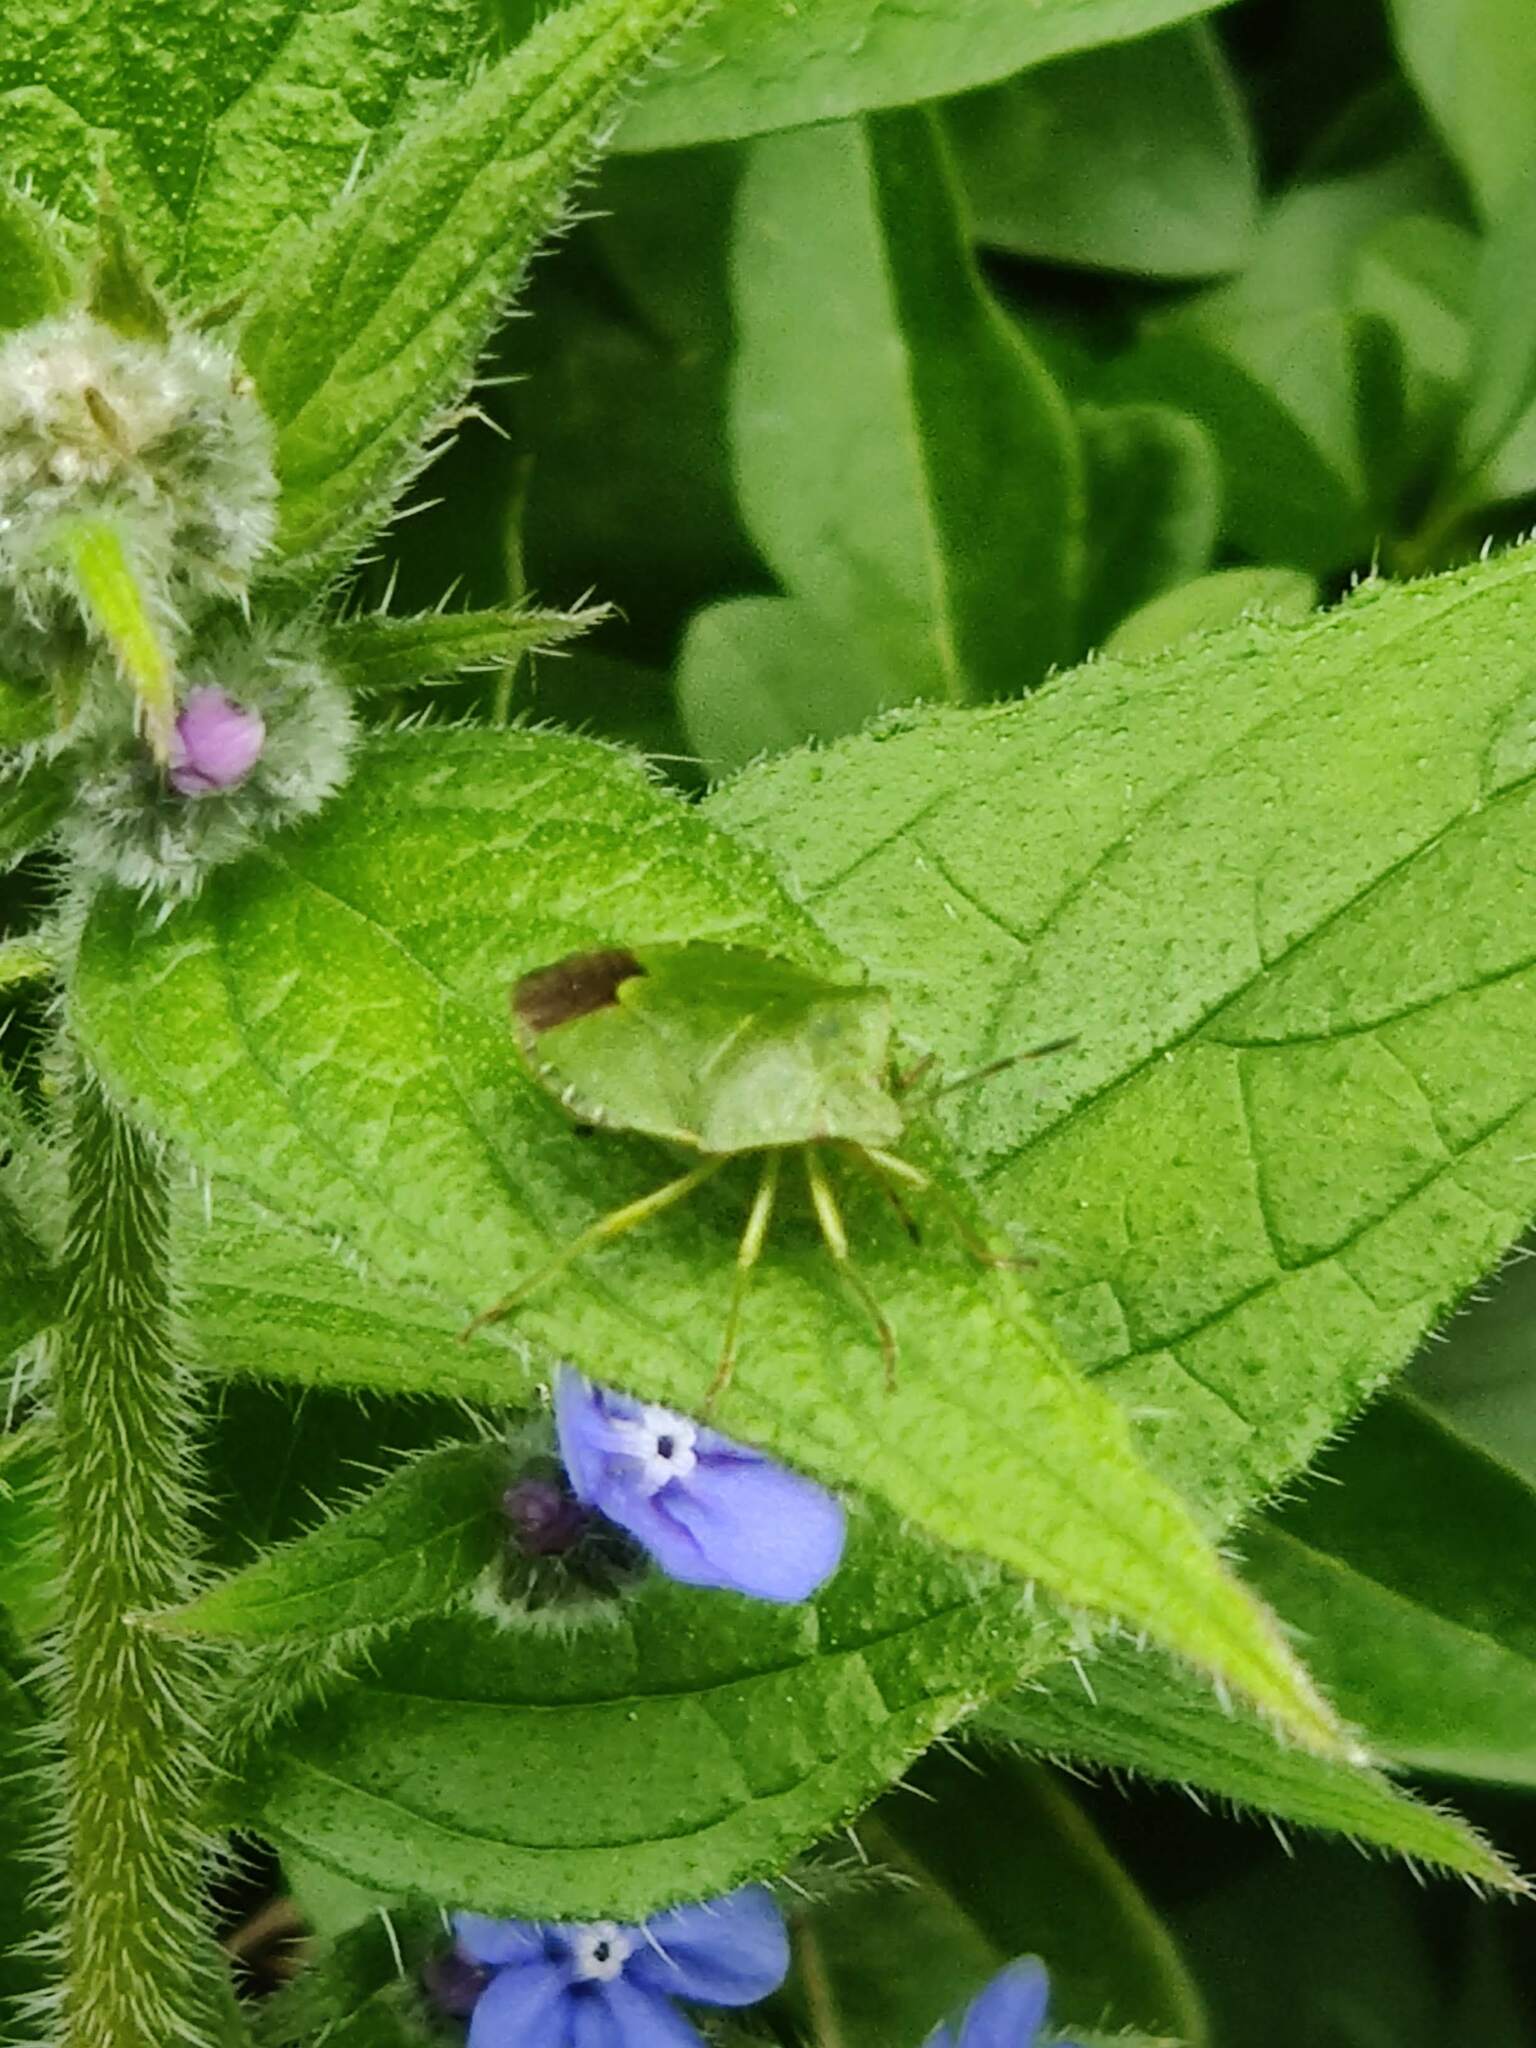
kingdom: Animalia
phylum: Arthropoda
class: Insecta
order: Hemiptera
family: Pentatomidae
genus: Palomena
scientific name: Palomena prasina
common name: Green shieldbug
